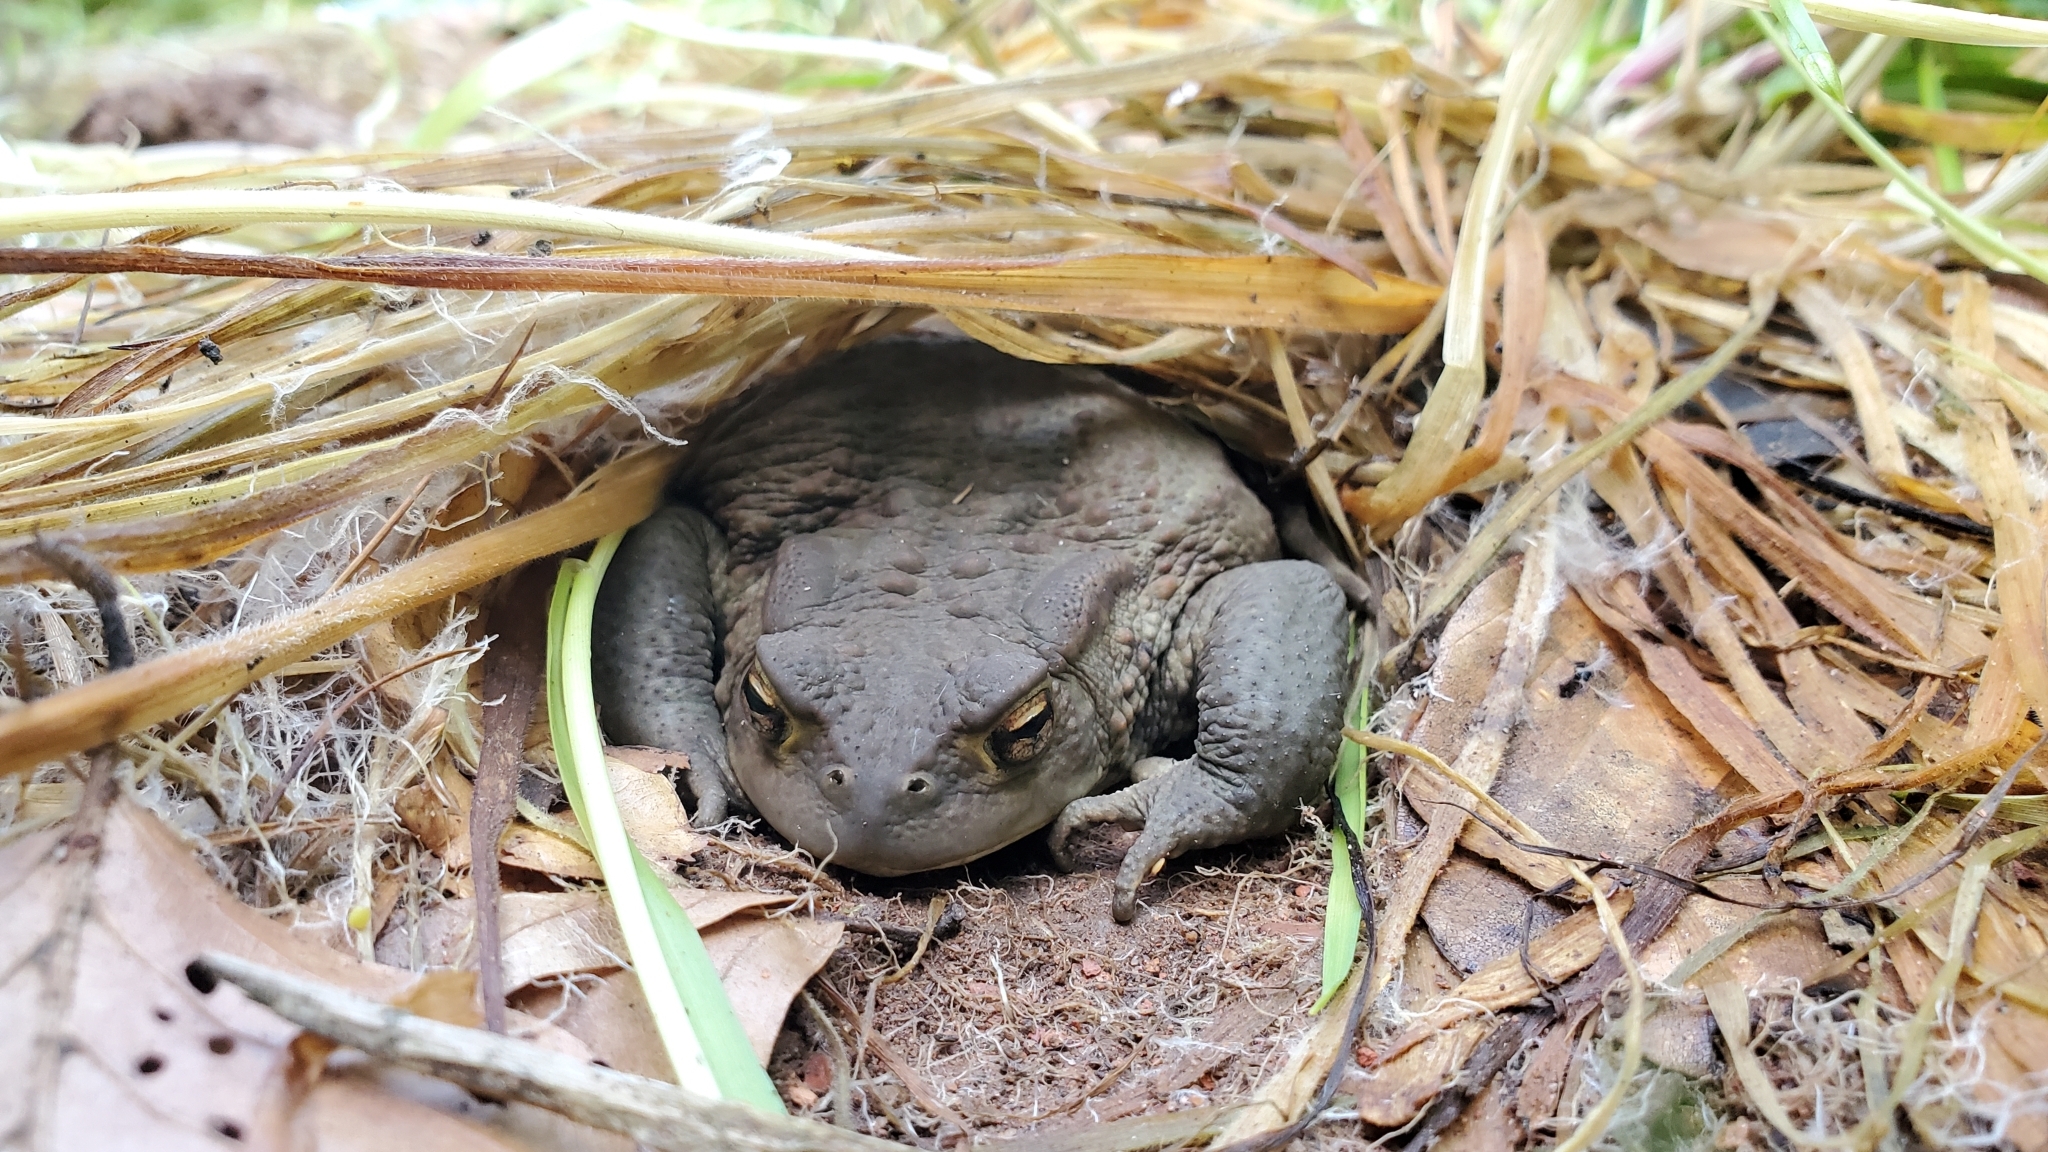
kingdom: Animalia
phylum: Chordata
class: Amphibia
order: Anura
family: Bufonidae
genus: Bufo
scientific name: Bufo bufo
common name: Common toad
